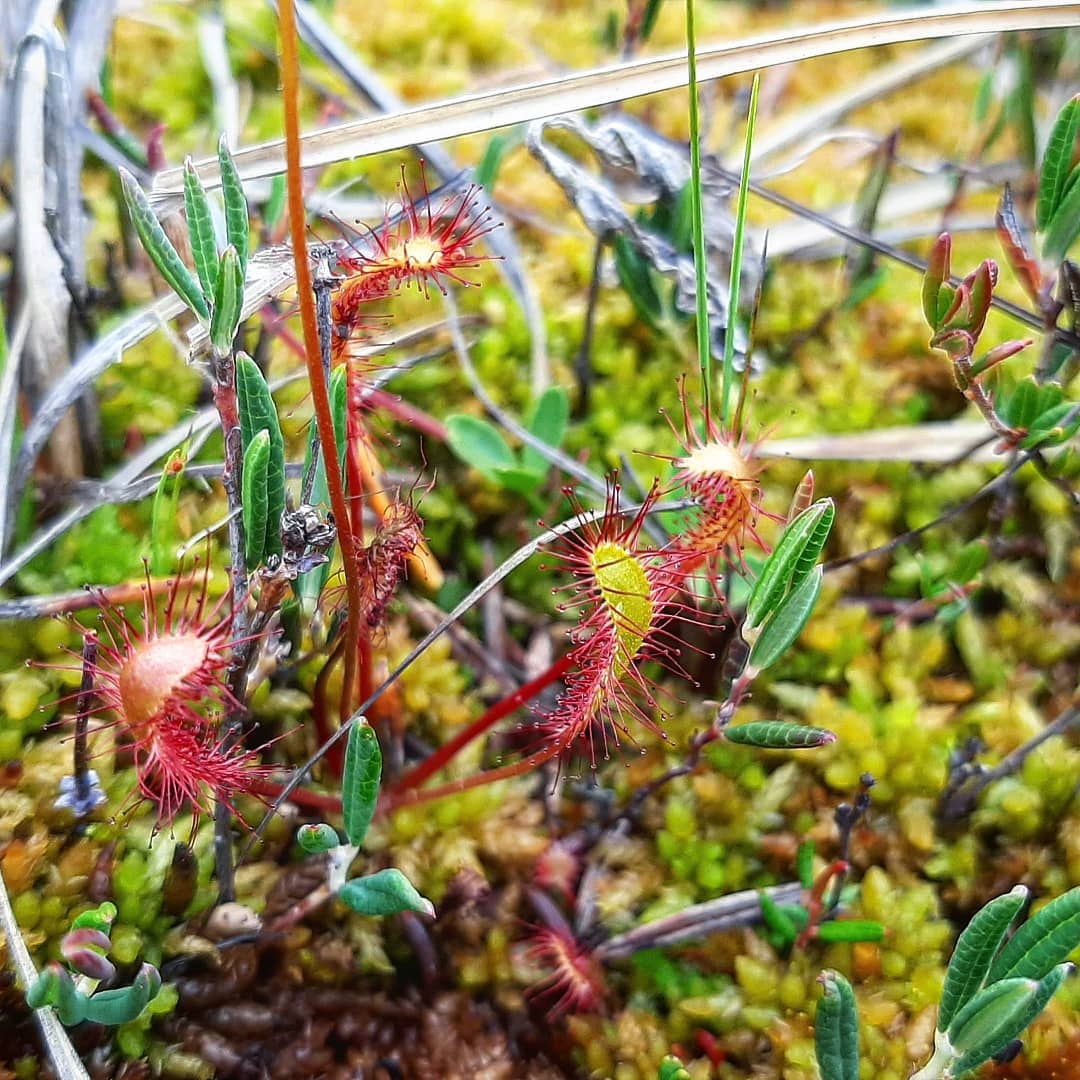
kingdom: Plantae
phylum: Tracheophyta
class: Magnoliopsida
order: Caryophyllales
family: Droseraceae
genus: Drosera
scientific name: Drosera anglica
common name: Great sundew
